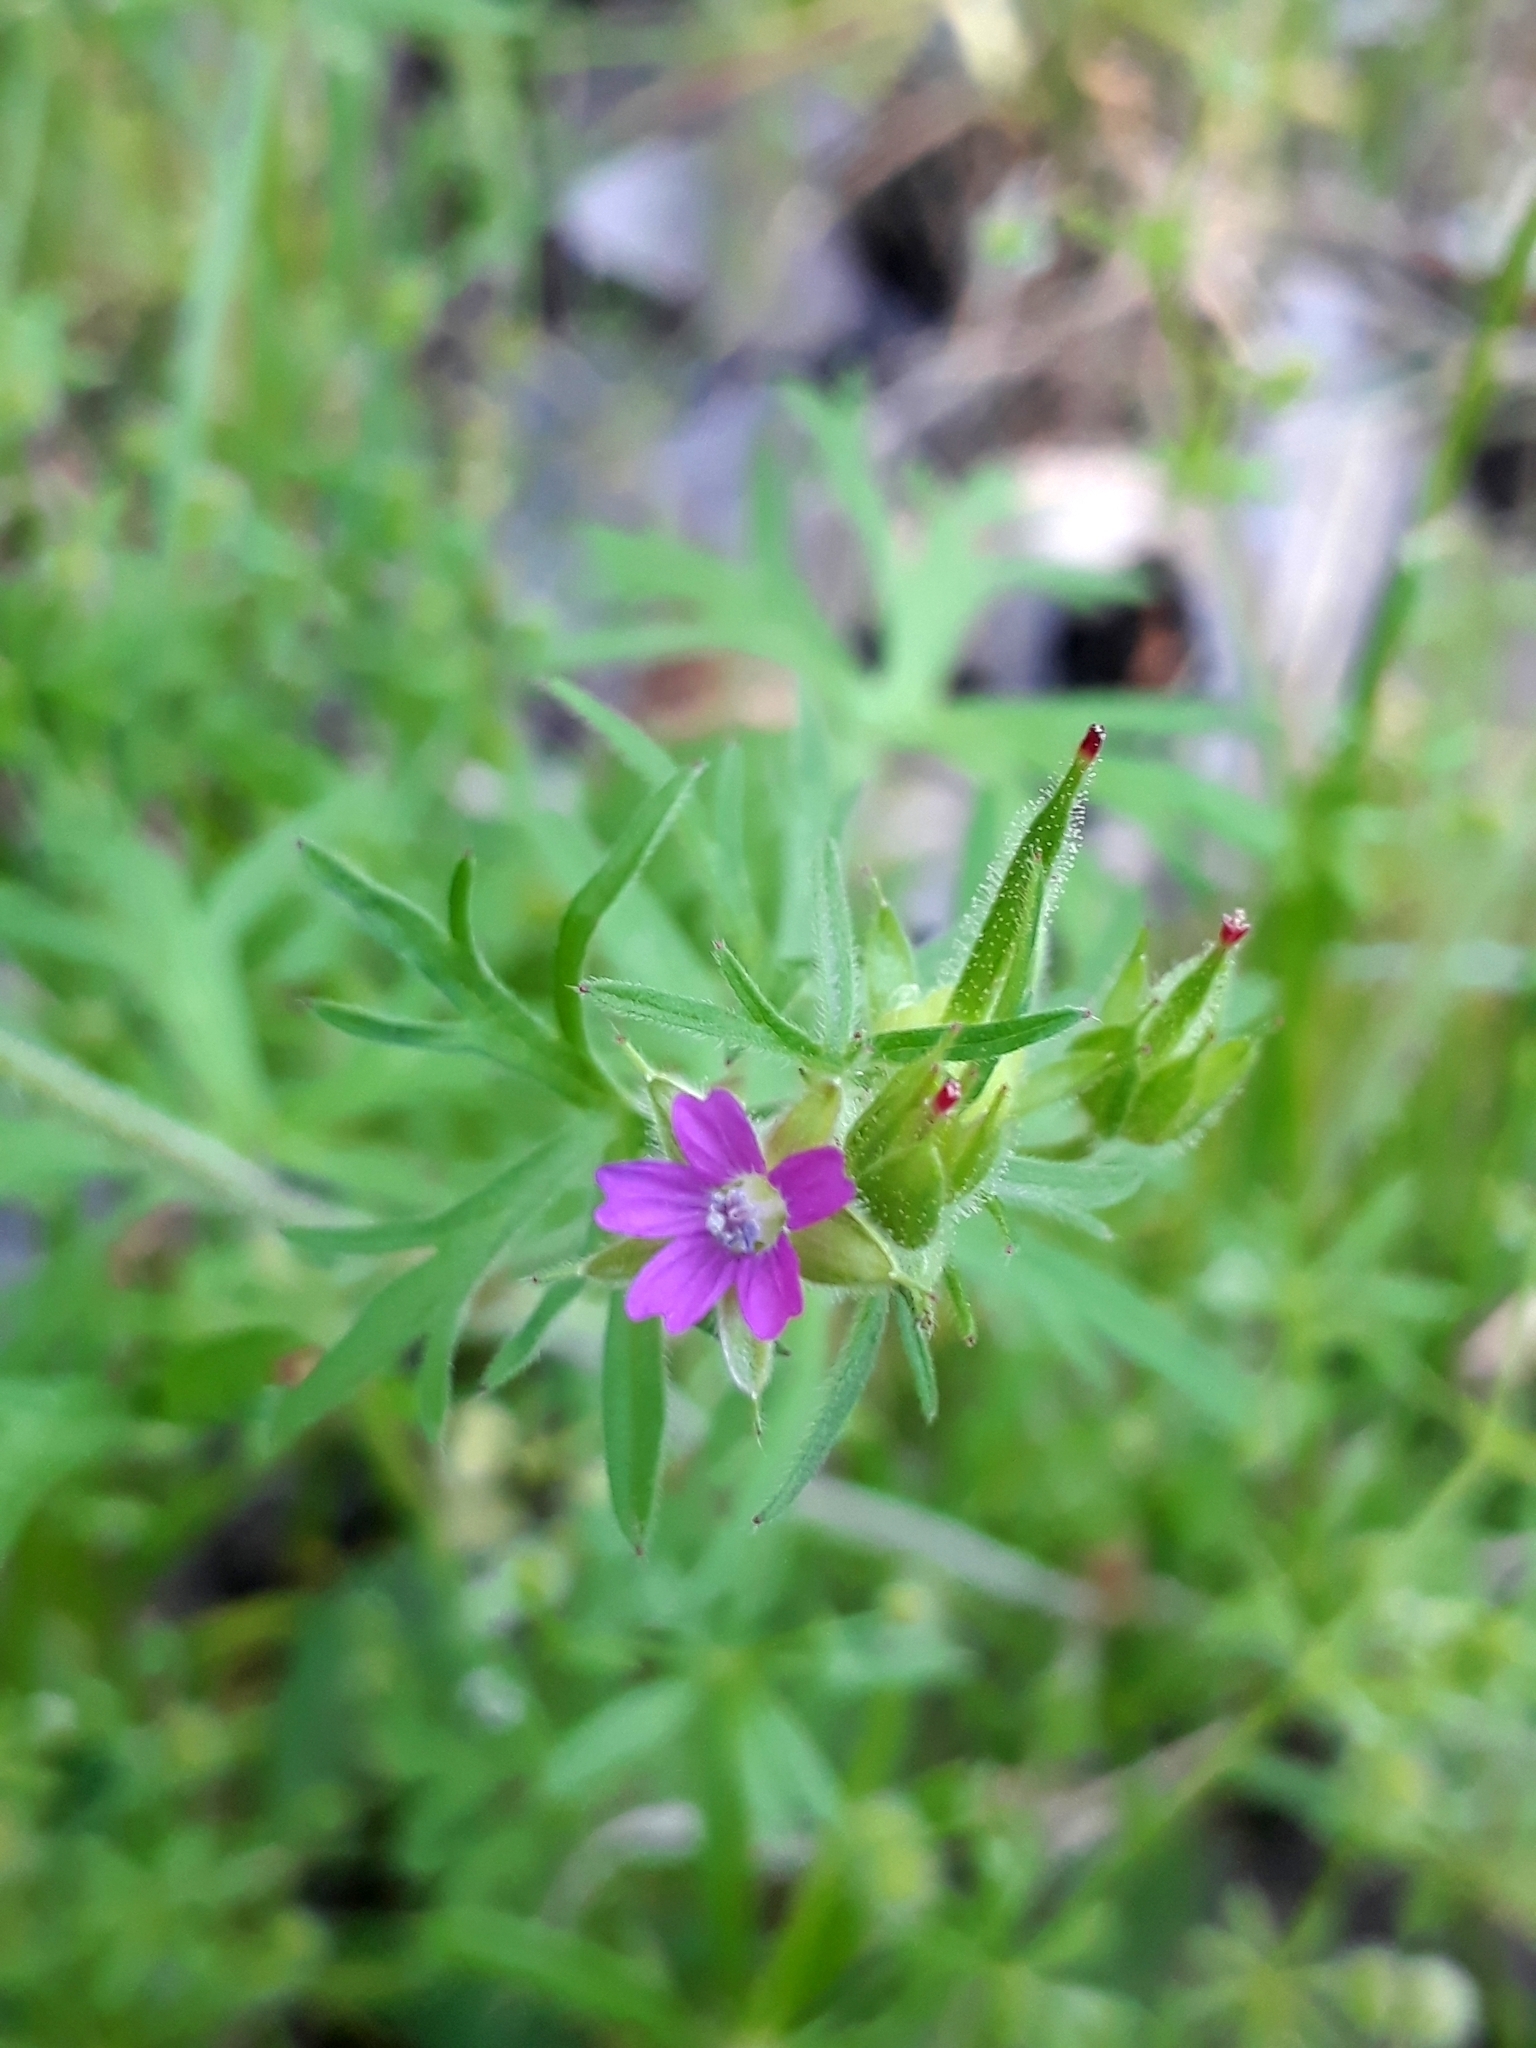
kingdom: Plantae
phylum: Tracheophyta
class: Magnoliopsida
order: Geraniales
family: Geraniaceae
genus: Geranium
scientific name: Geranium dissectum
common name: Cut-leaved crane's-bill
